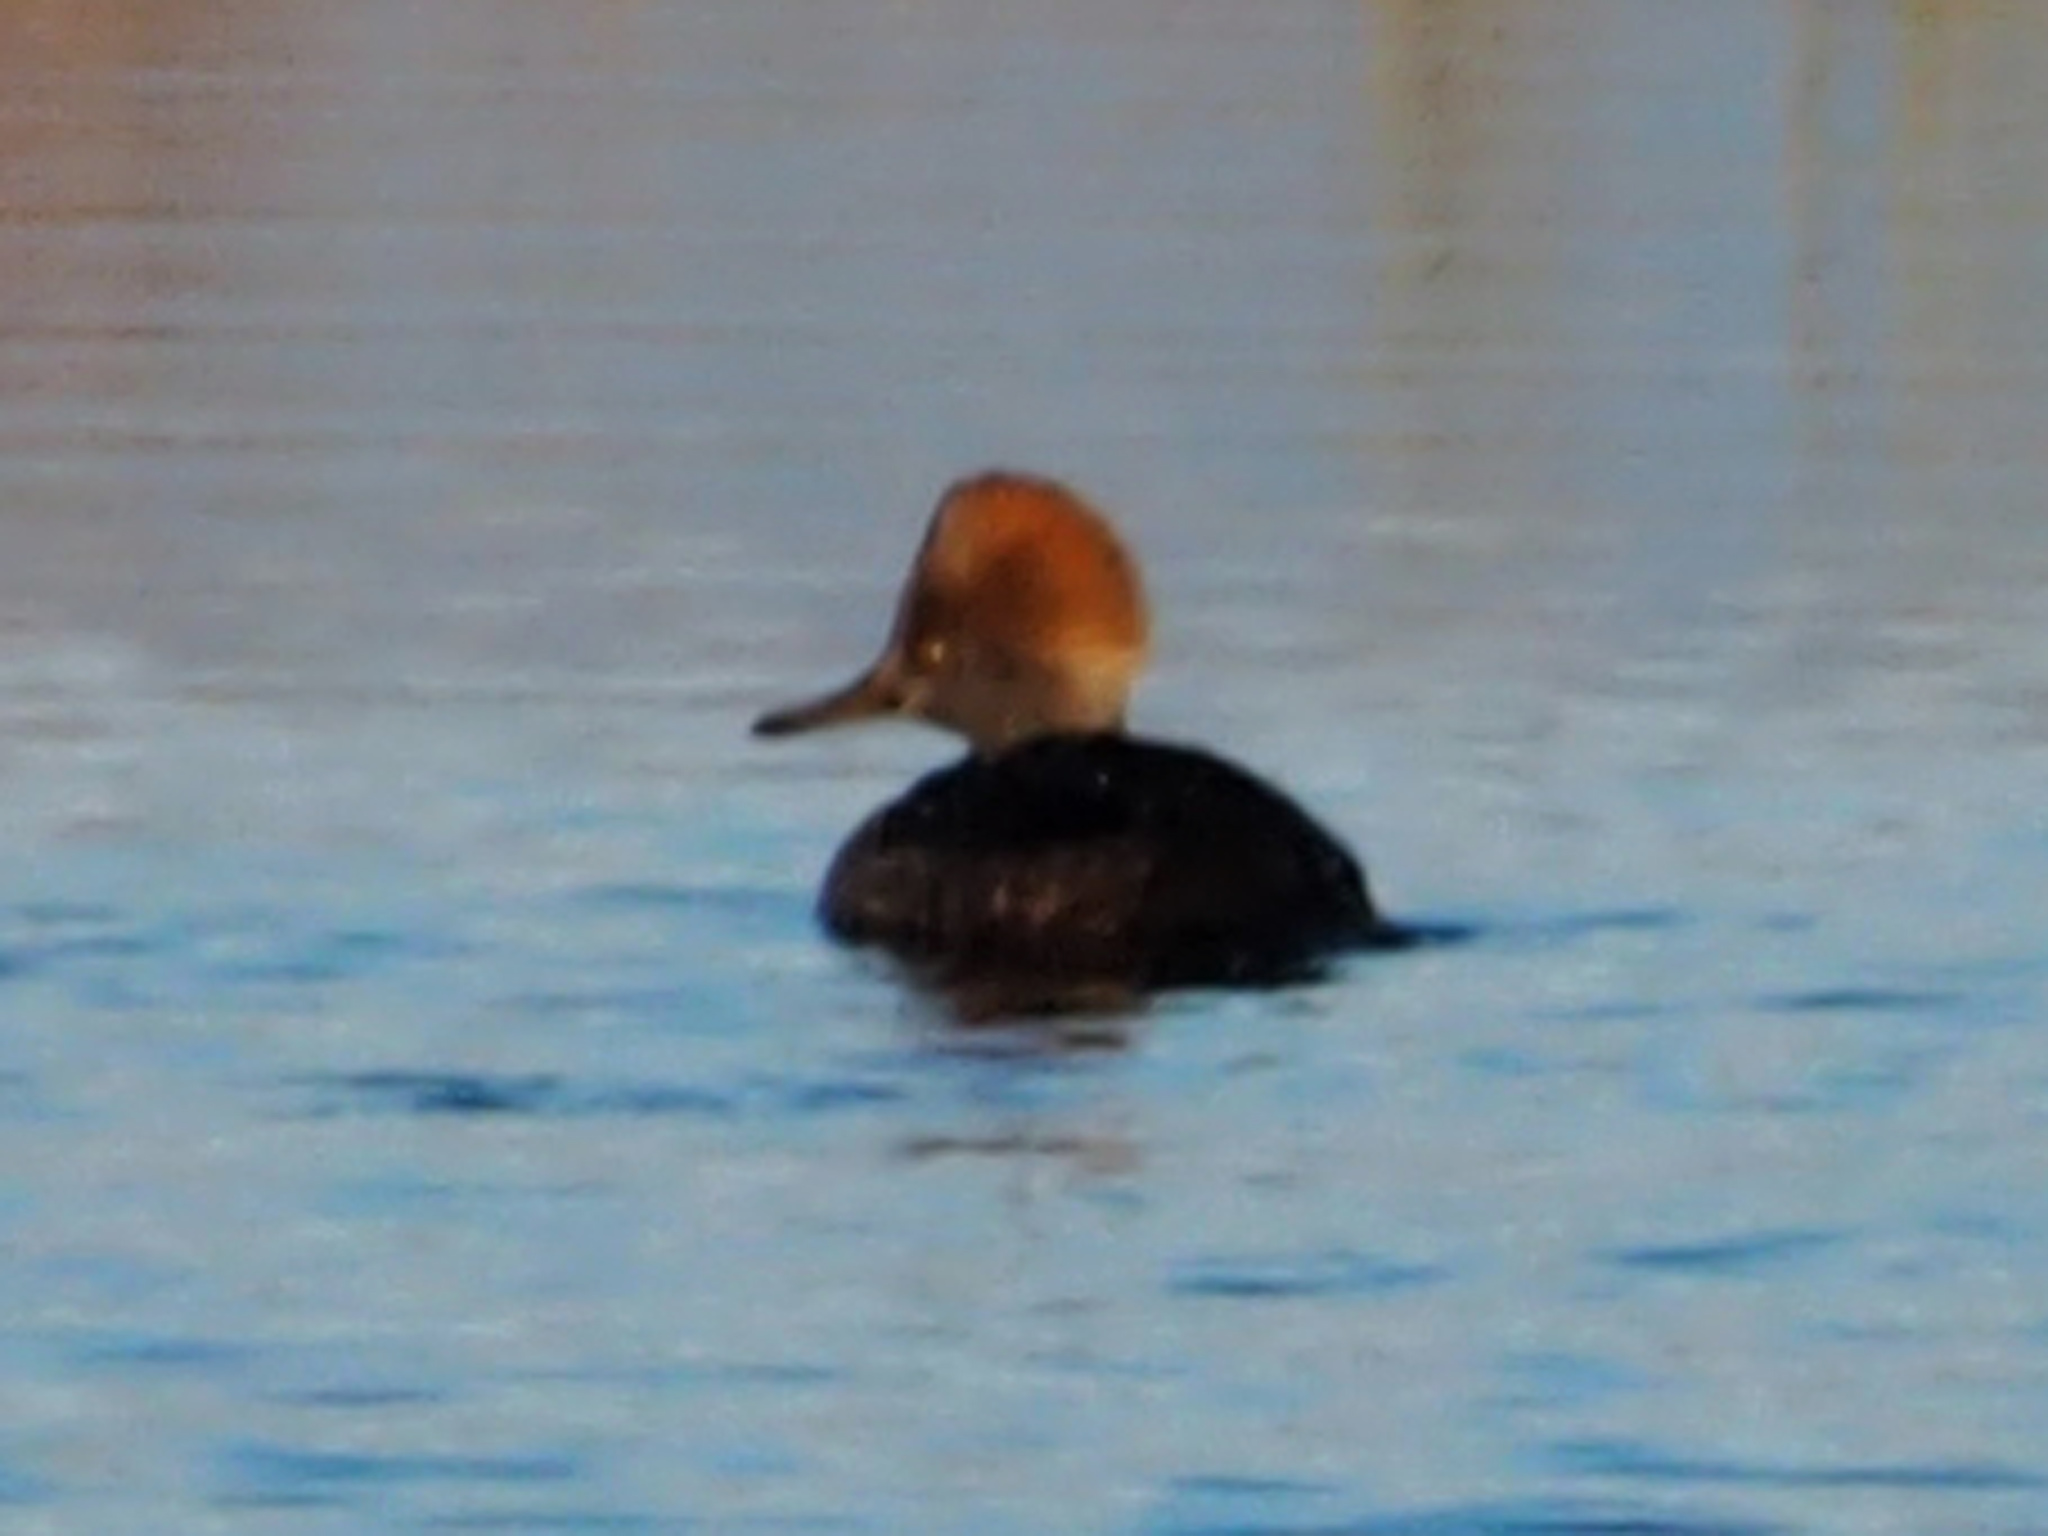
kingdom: Animalia
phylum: Chordata
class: Aves
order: Anseriformes
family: Anatidae
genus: Lophodytes
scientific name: Lophodytes cucullatus
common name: Hooded merganser
